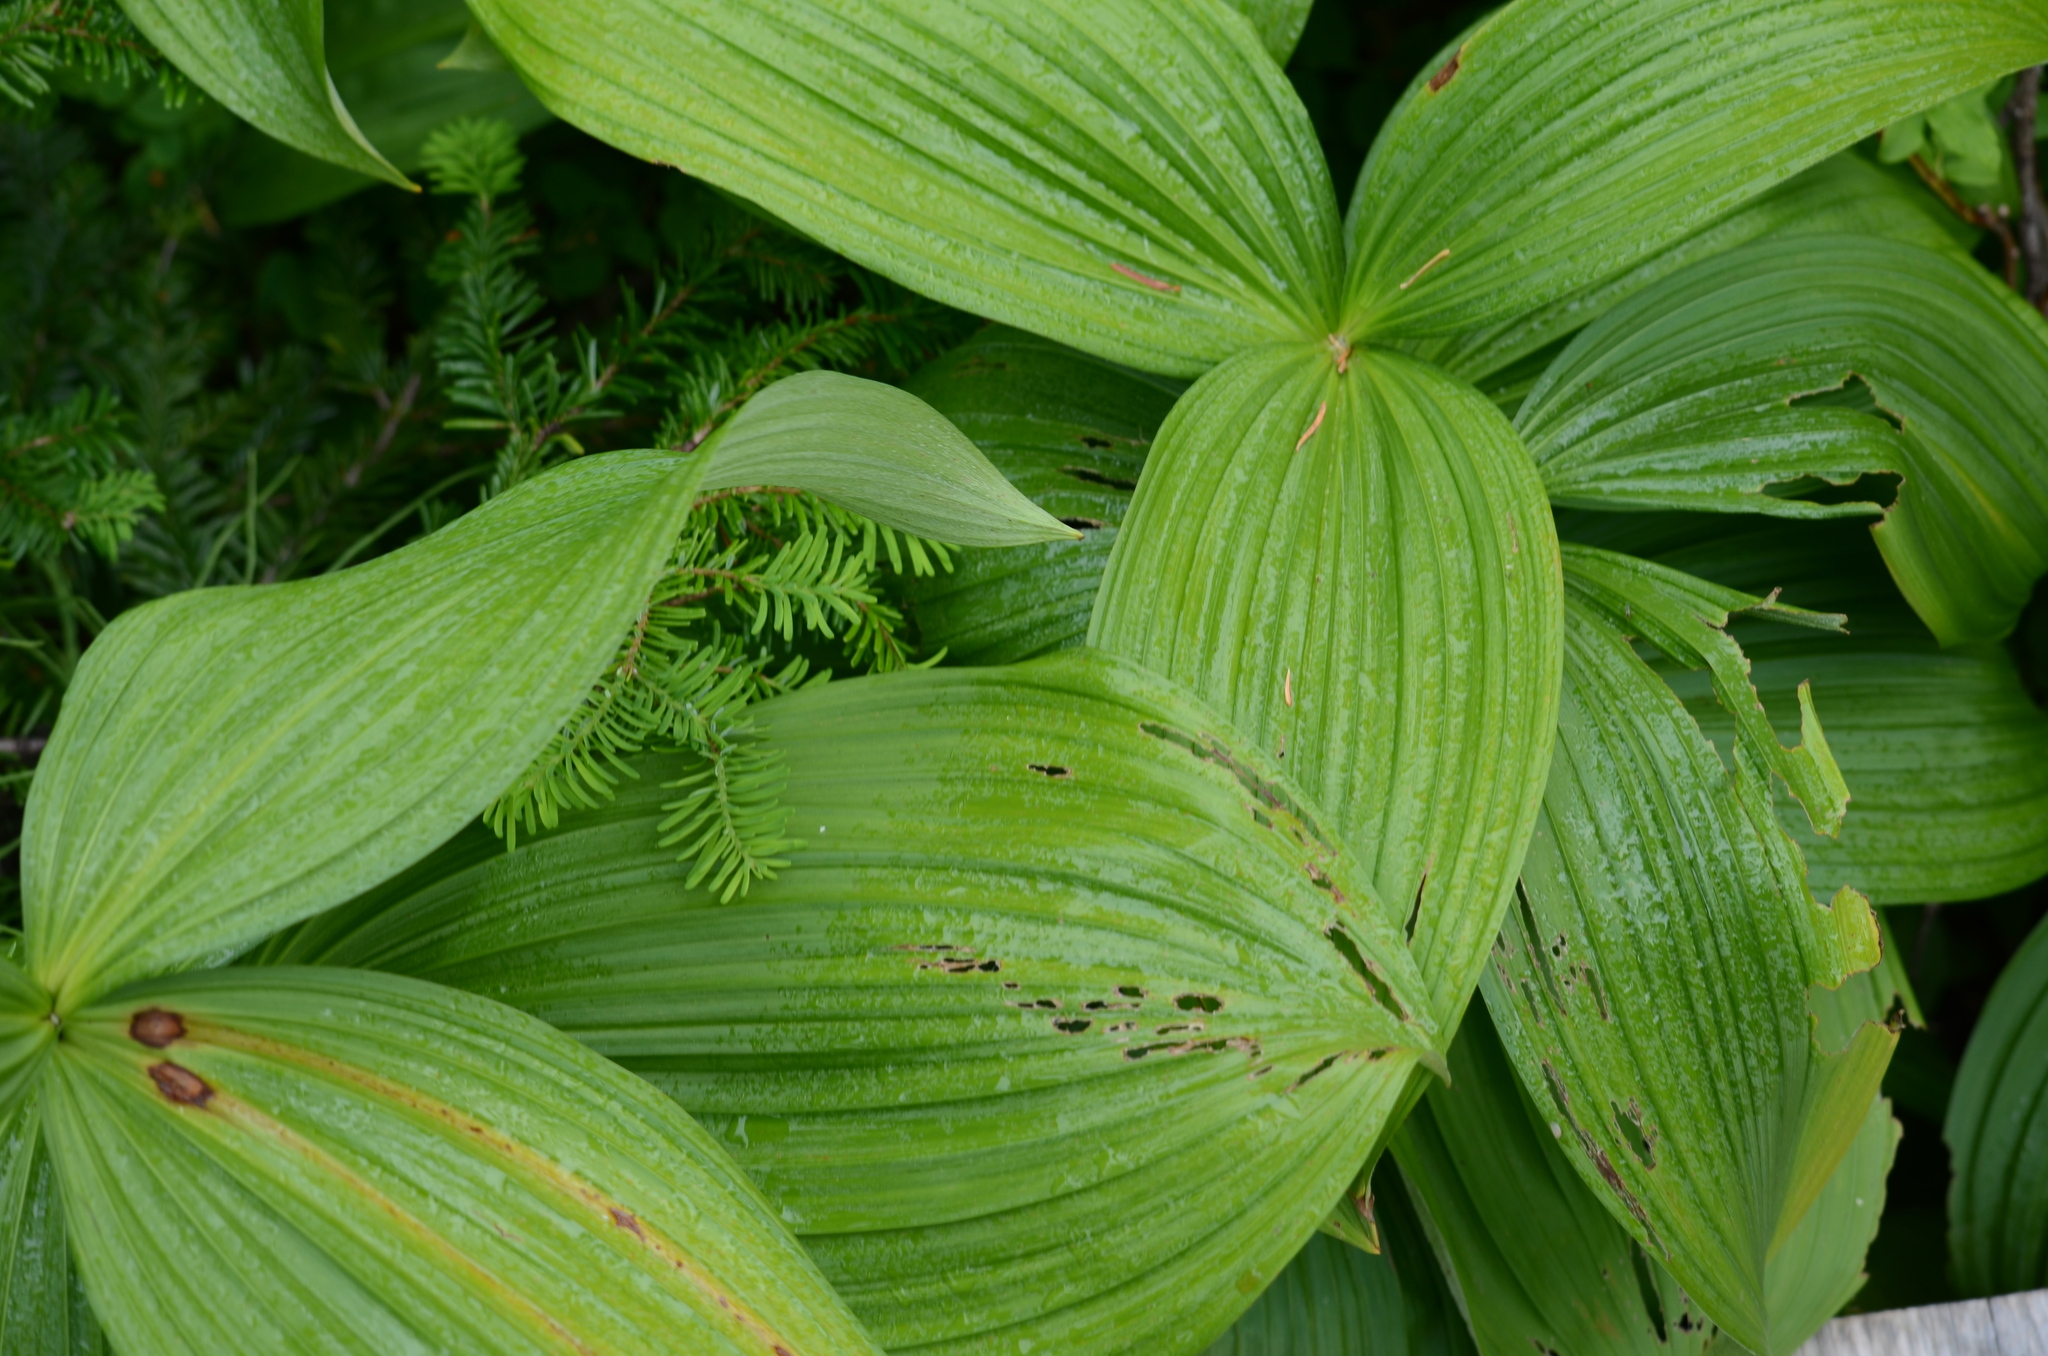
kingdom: Plantae
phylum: Tracheophyta
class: Liliopsida
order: Liliales
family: Melanthiaceae
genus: Veratrum
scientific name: Veratrum viride
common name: American false hellebore
